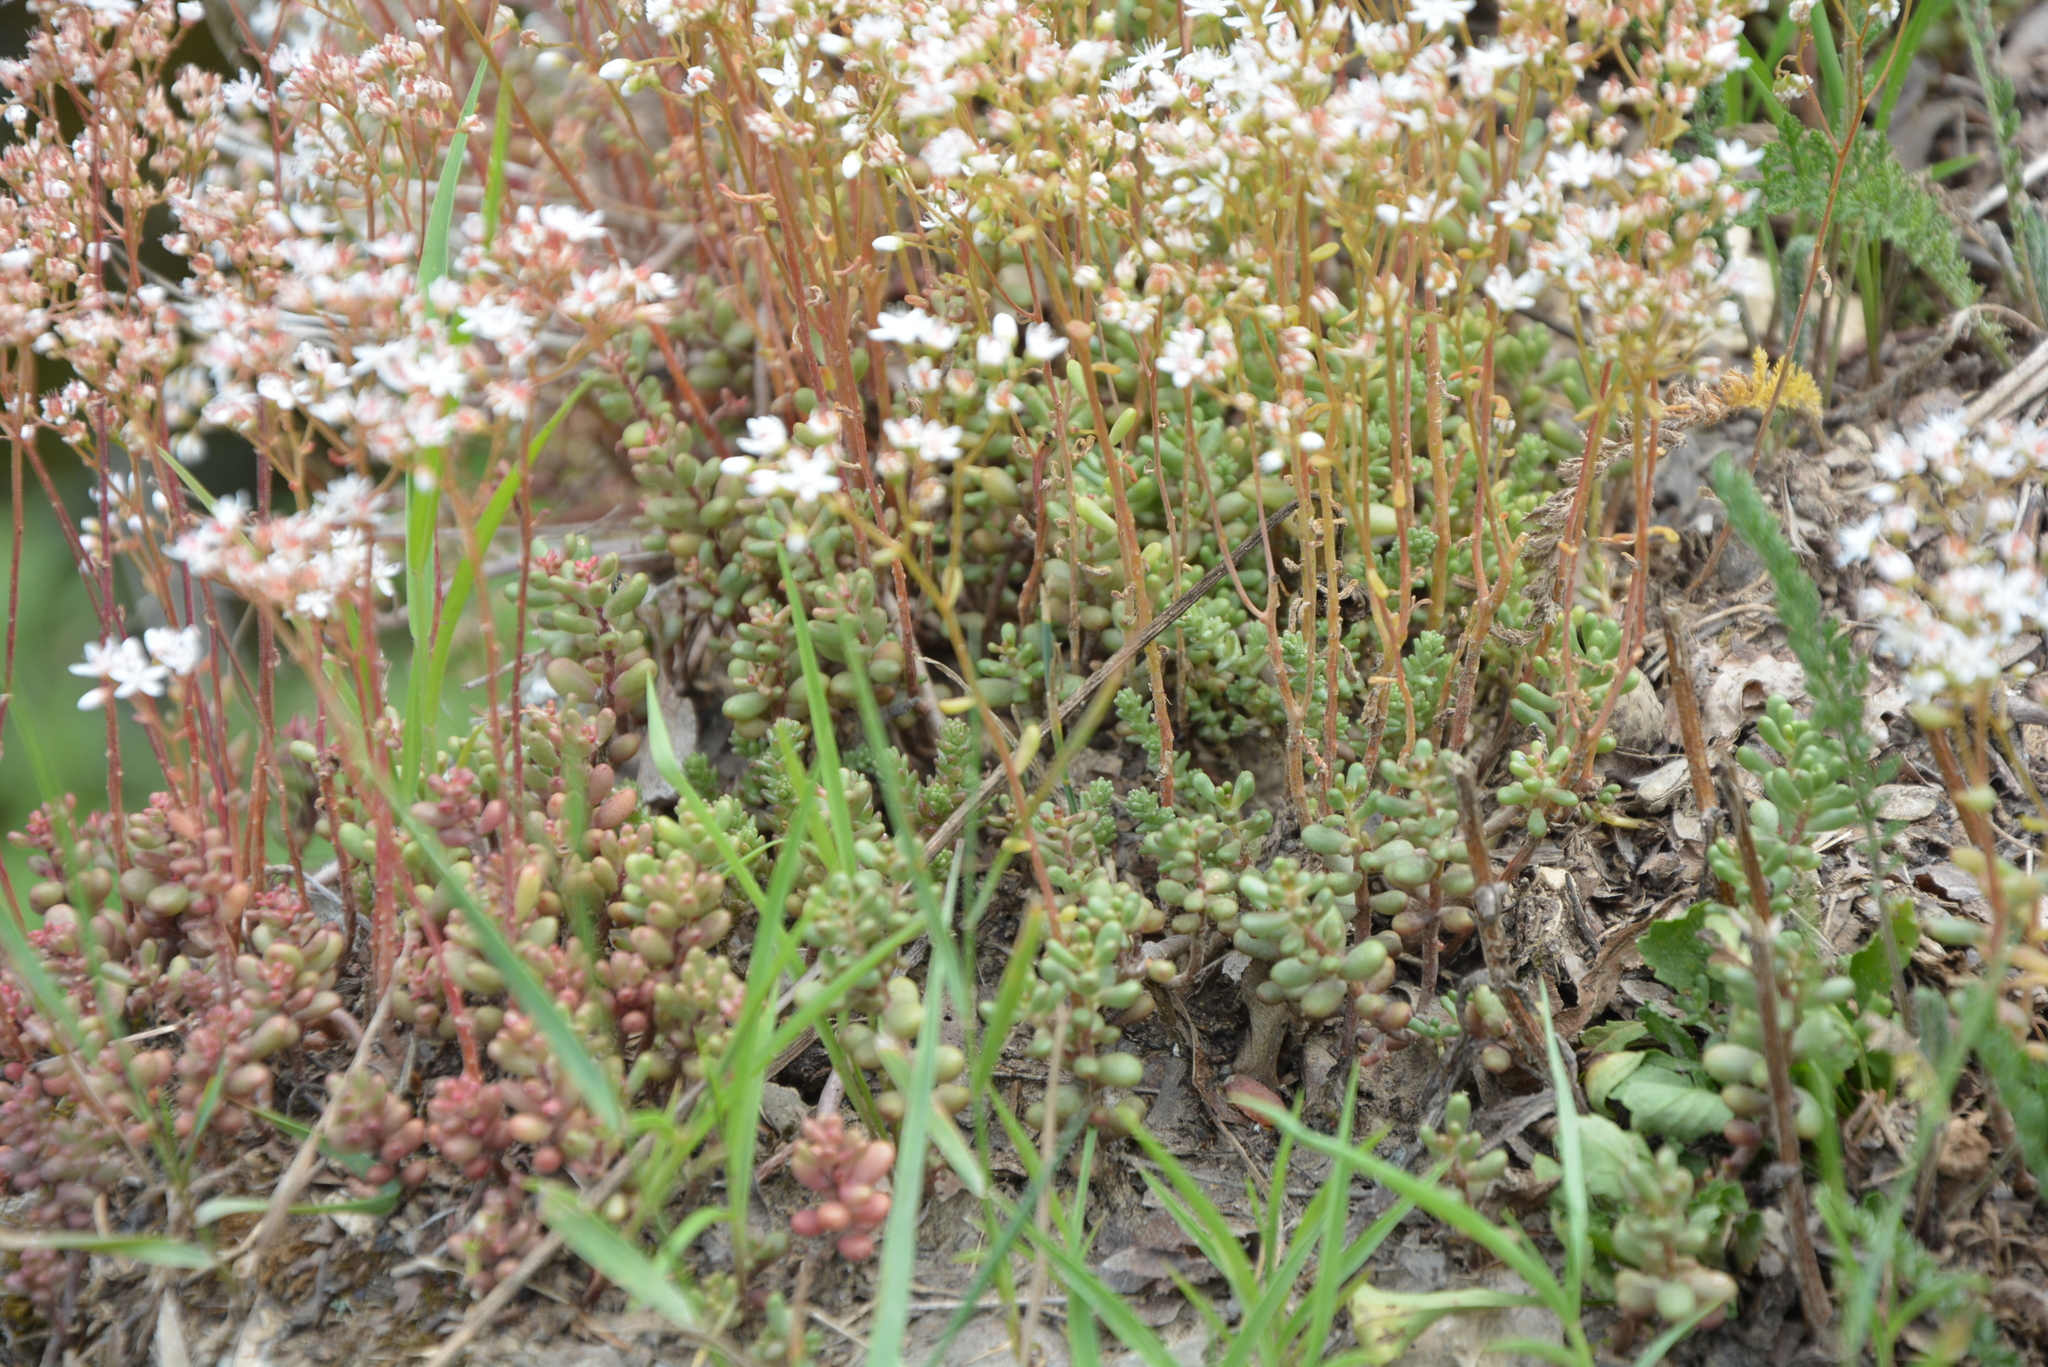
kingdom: Plantae
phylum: Tracheophyta
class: Magnoliopsida
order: Saxifragales
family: Crassulaceae
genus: Sedum
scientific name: Sedum album
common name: White stonecrop
